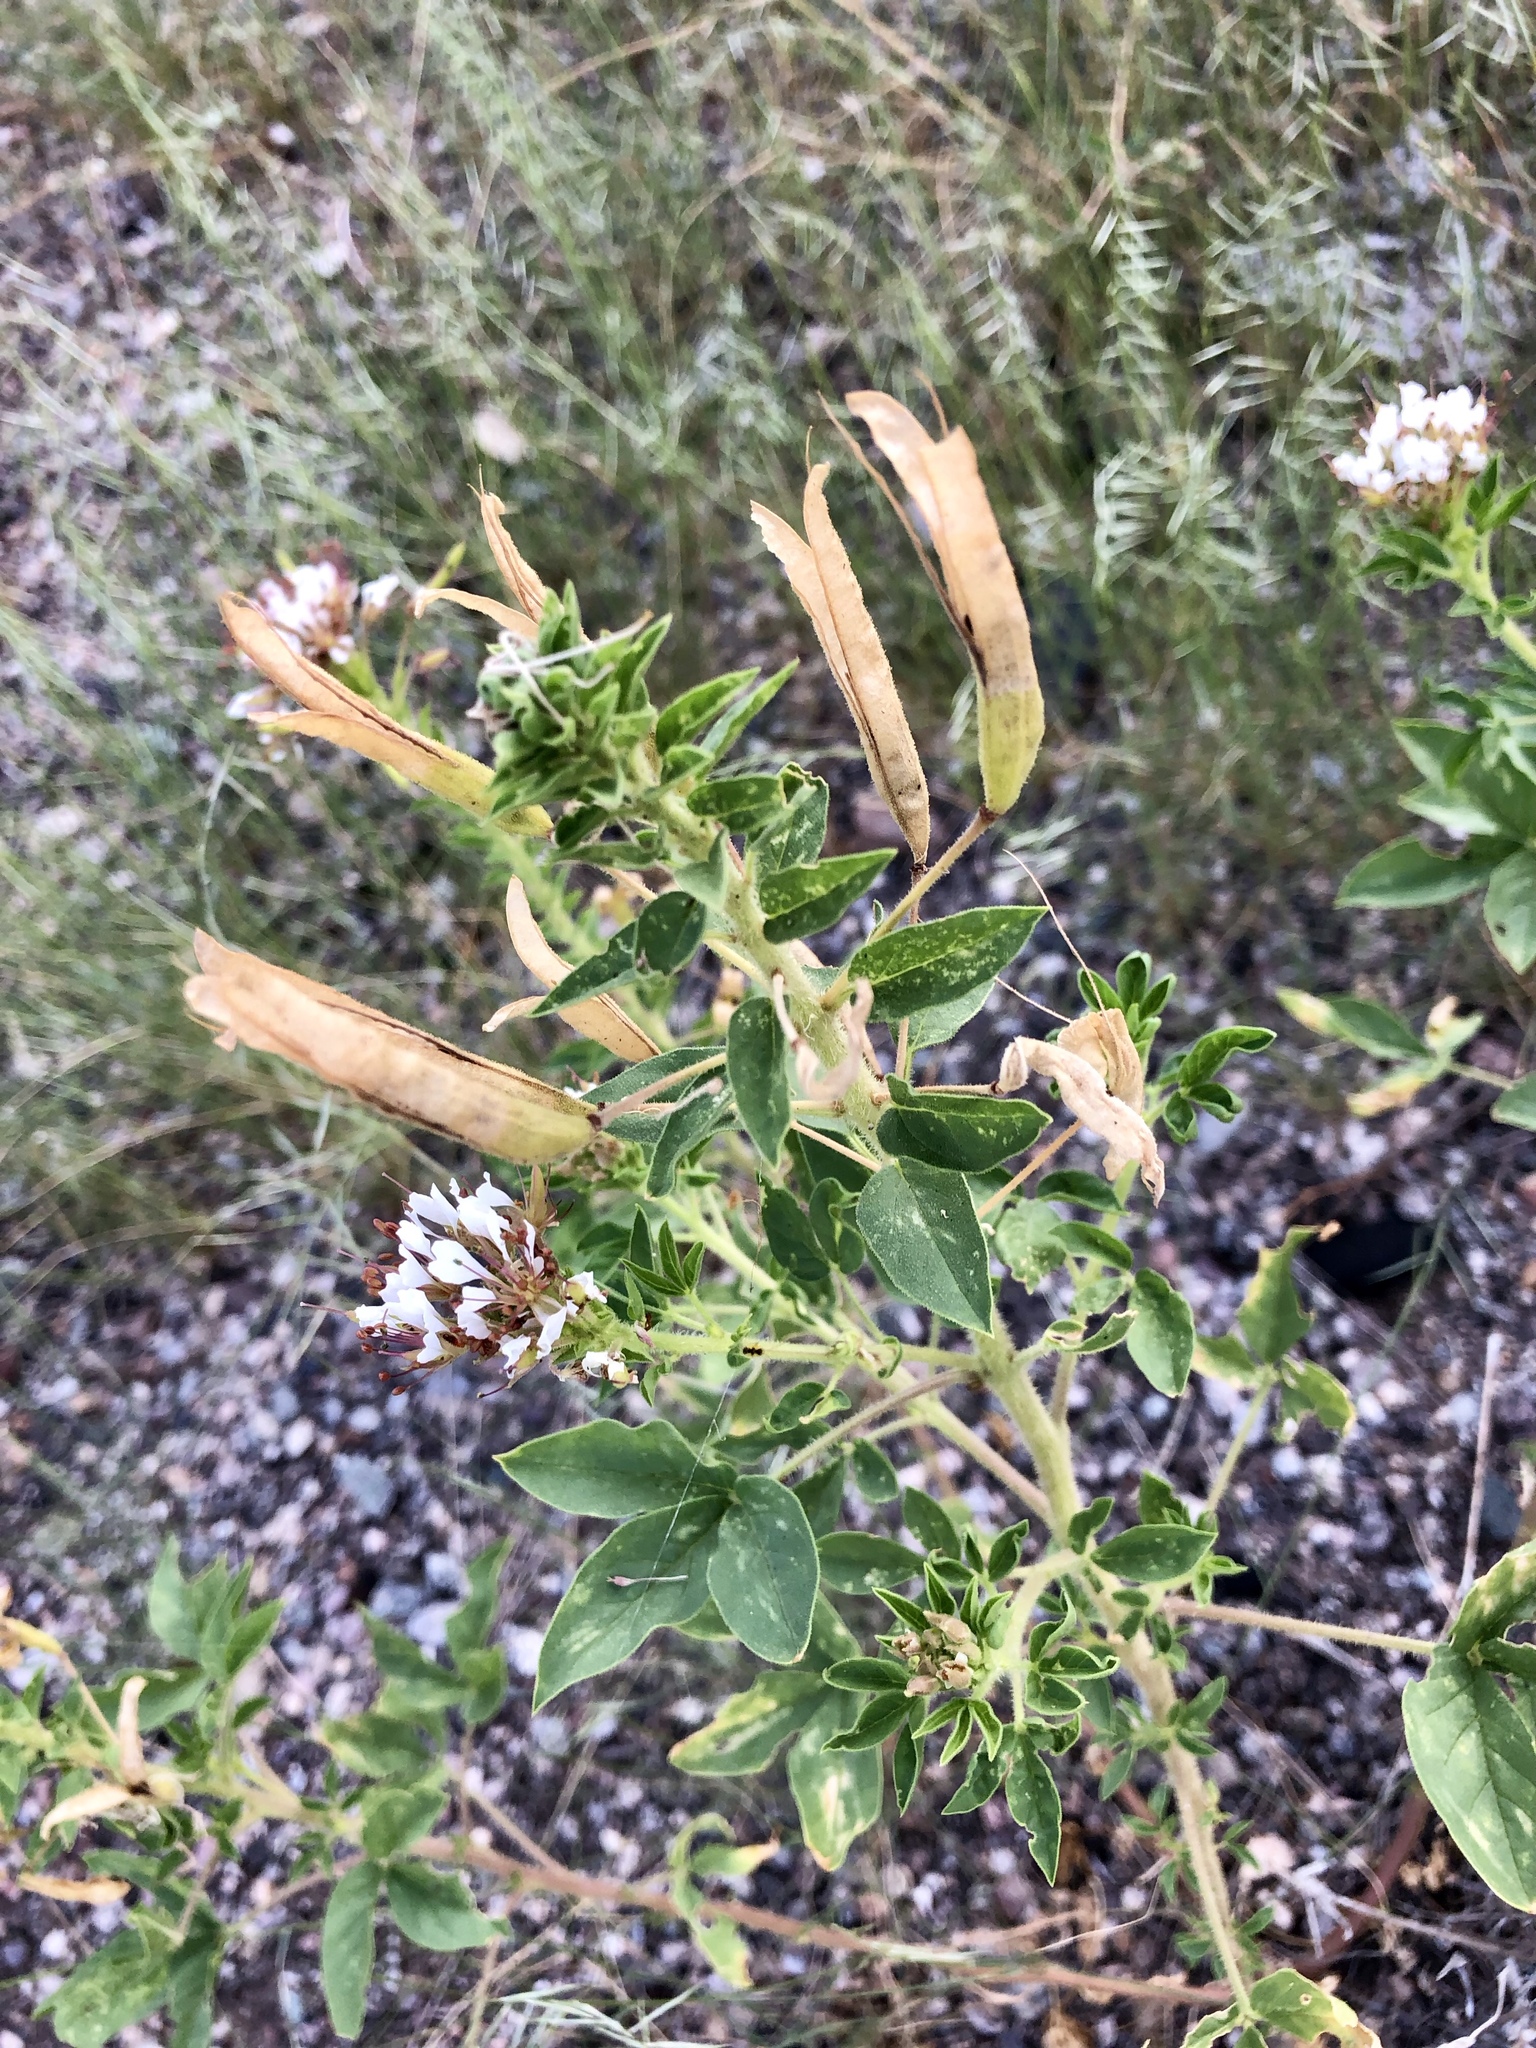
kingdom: Plantae
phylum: Tracheophyta
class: Magnoliopsida
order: Brassicales
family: Cleomaceae
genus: Polanisia
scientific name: Polanisia dodecandra
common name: Clammyweed
